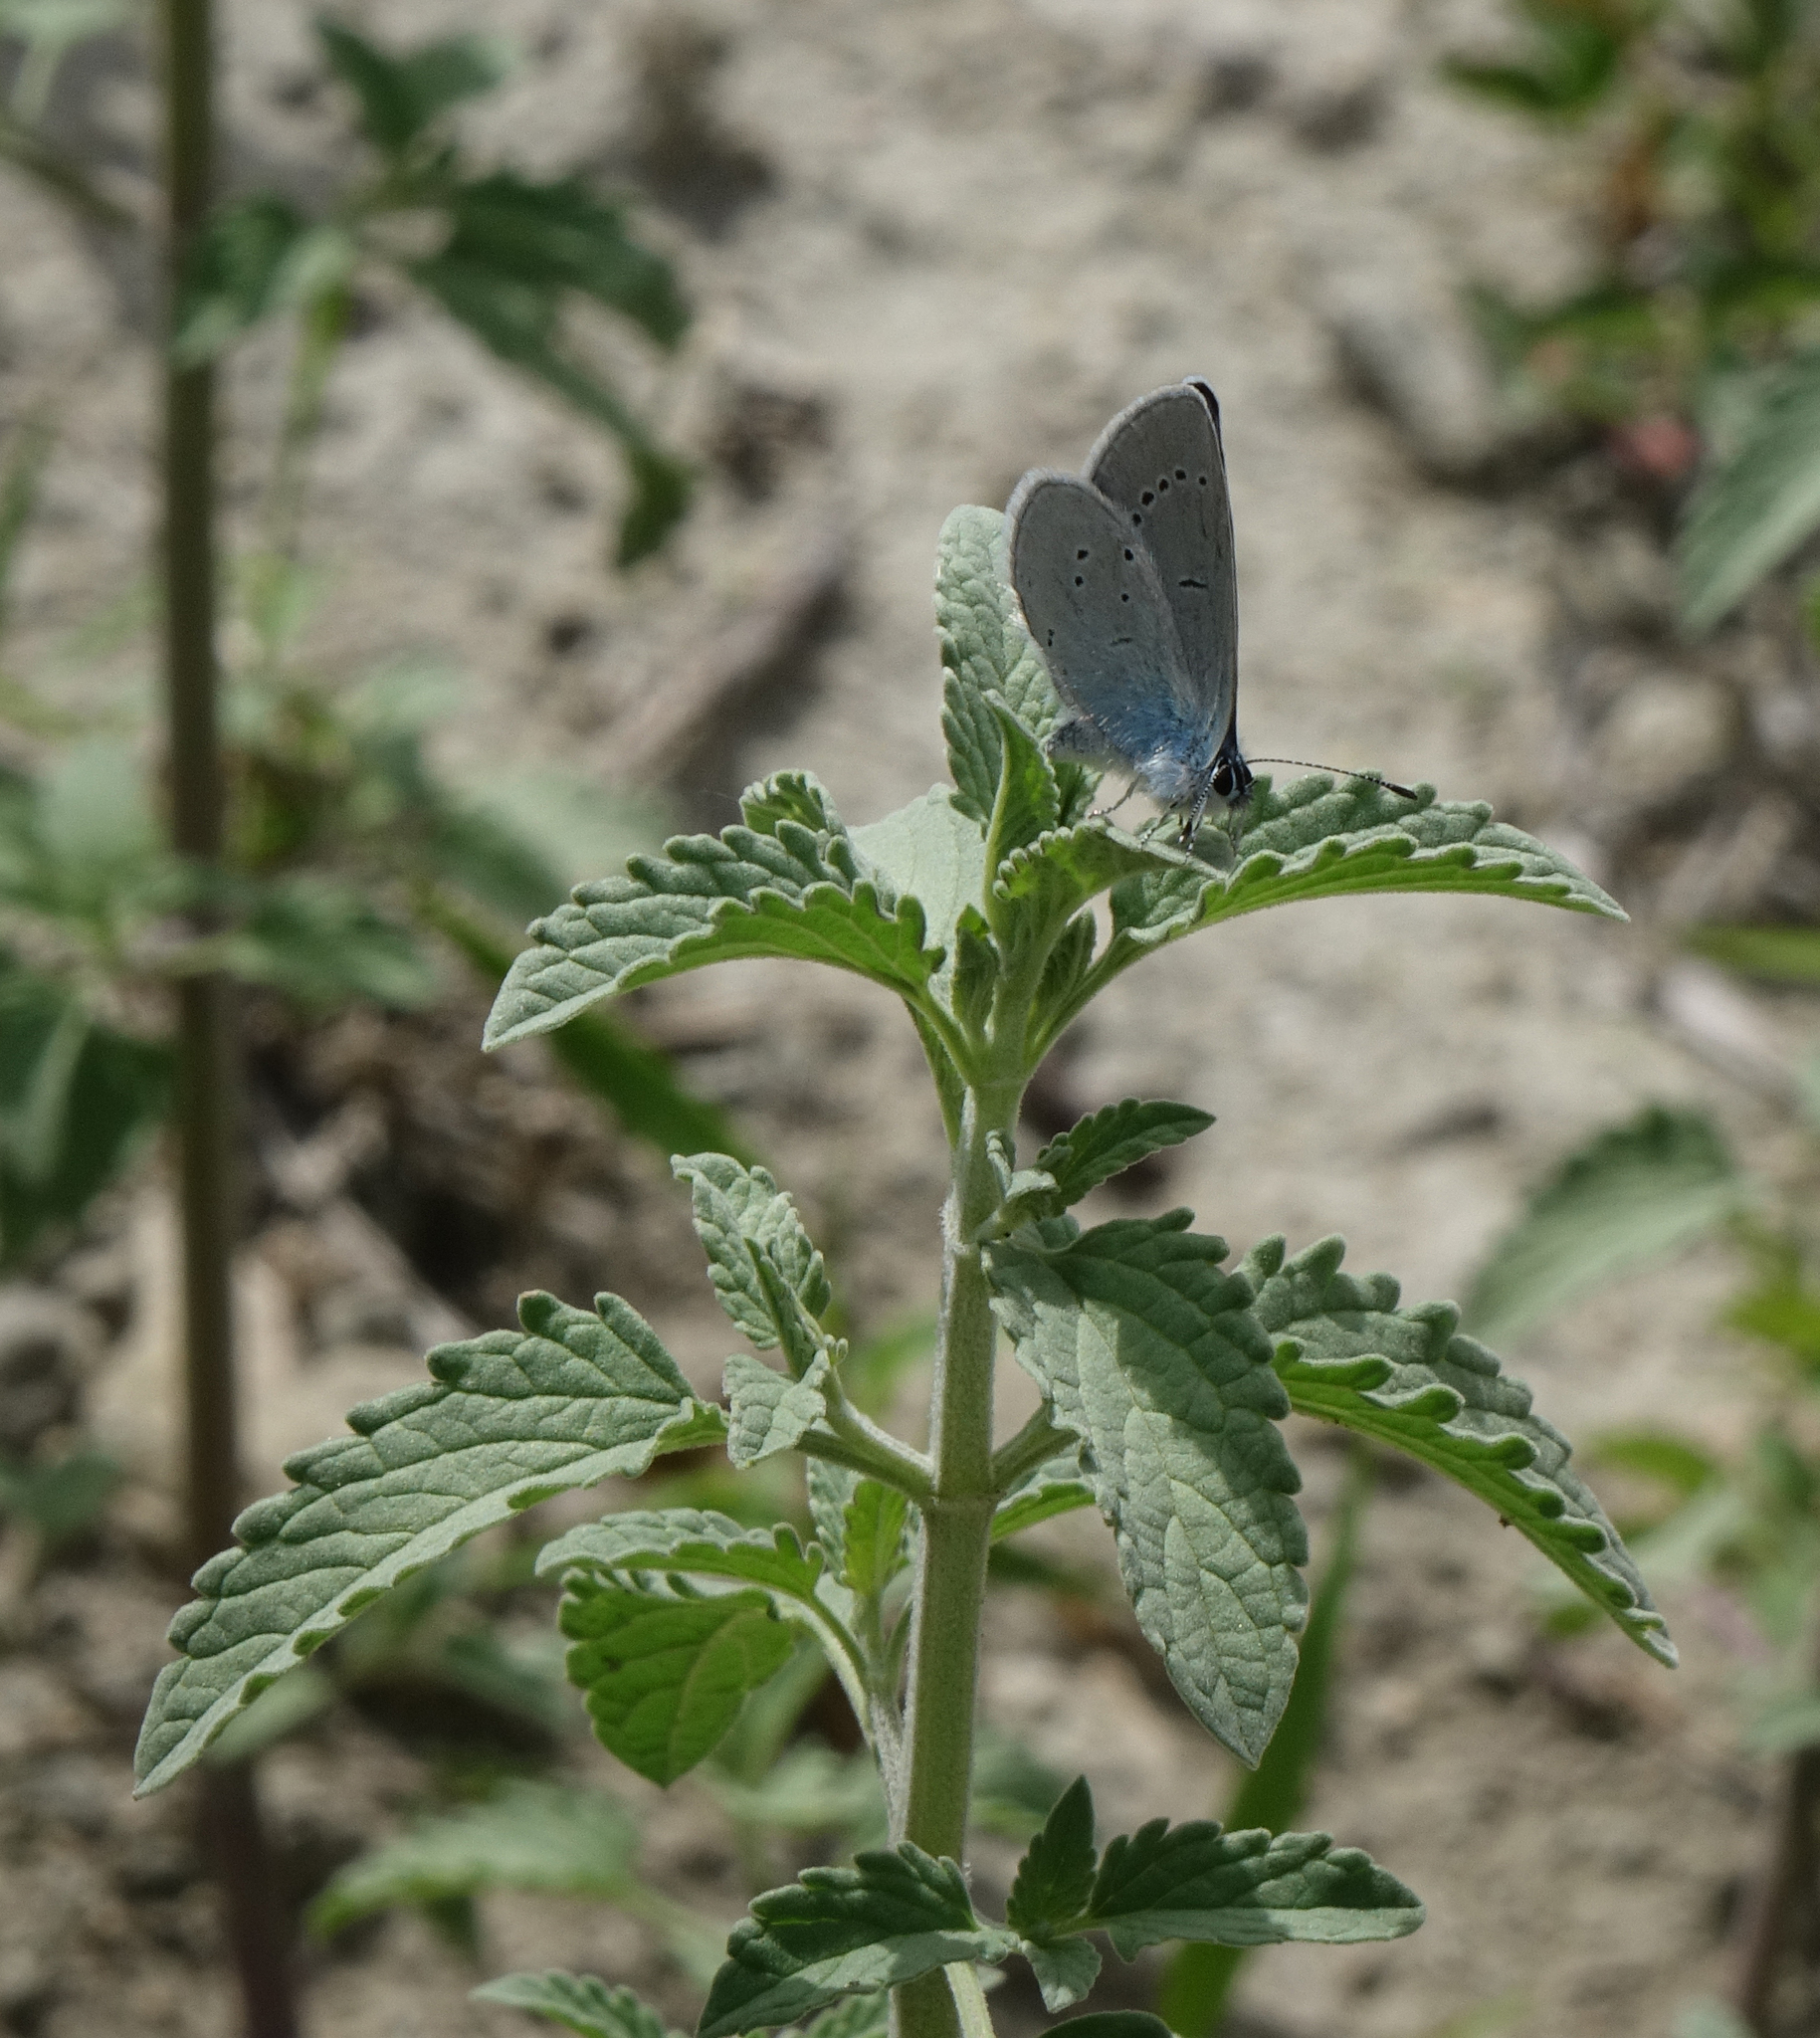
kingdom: Animalia
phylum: Arthropoda
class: Insecta
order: Lepidoptera
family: Lycaenidae
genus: Everes
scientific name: Everes sebrus
